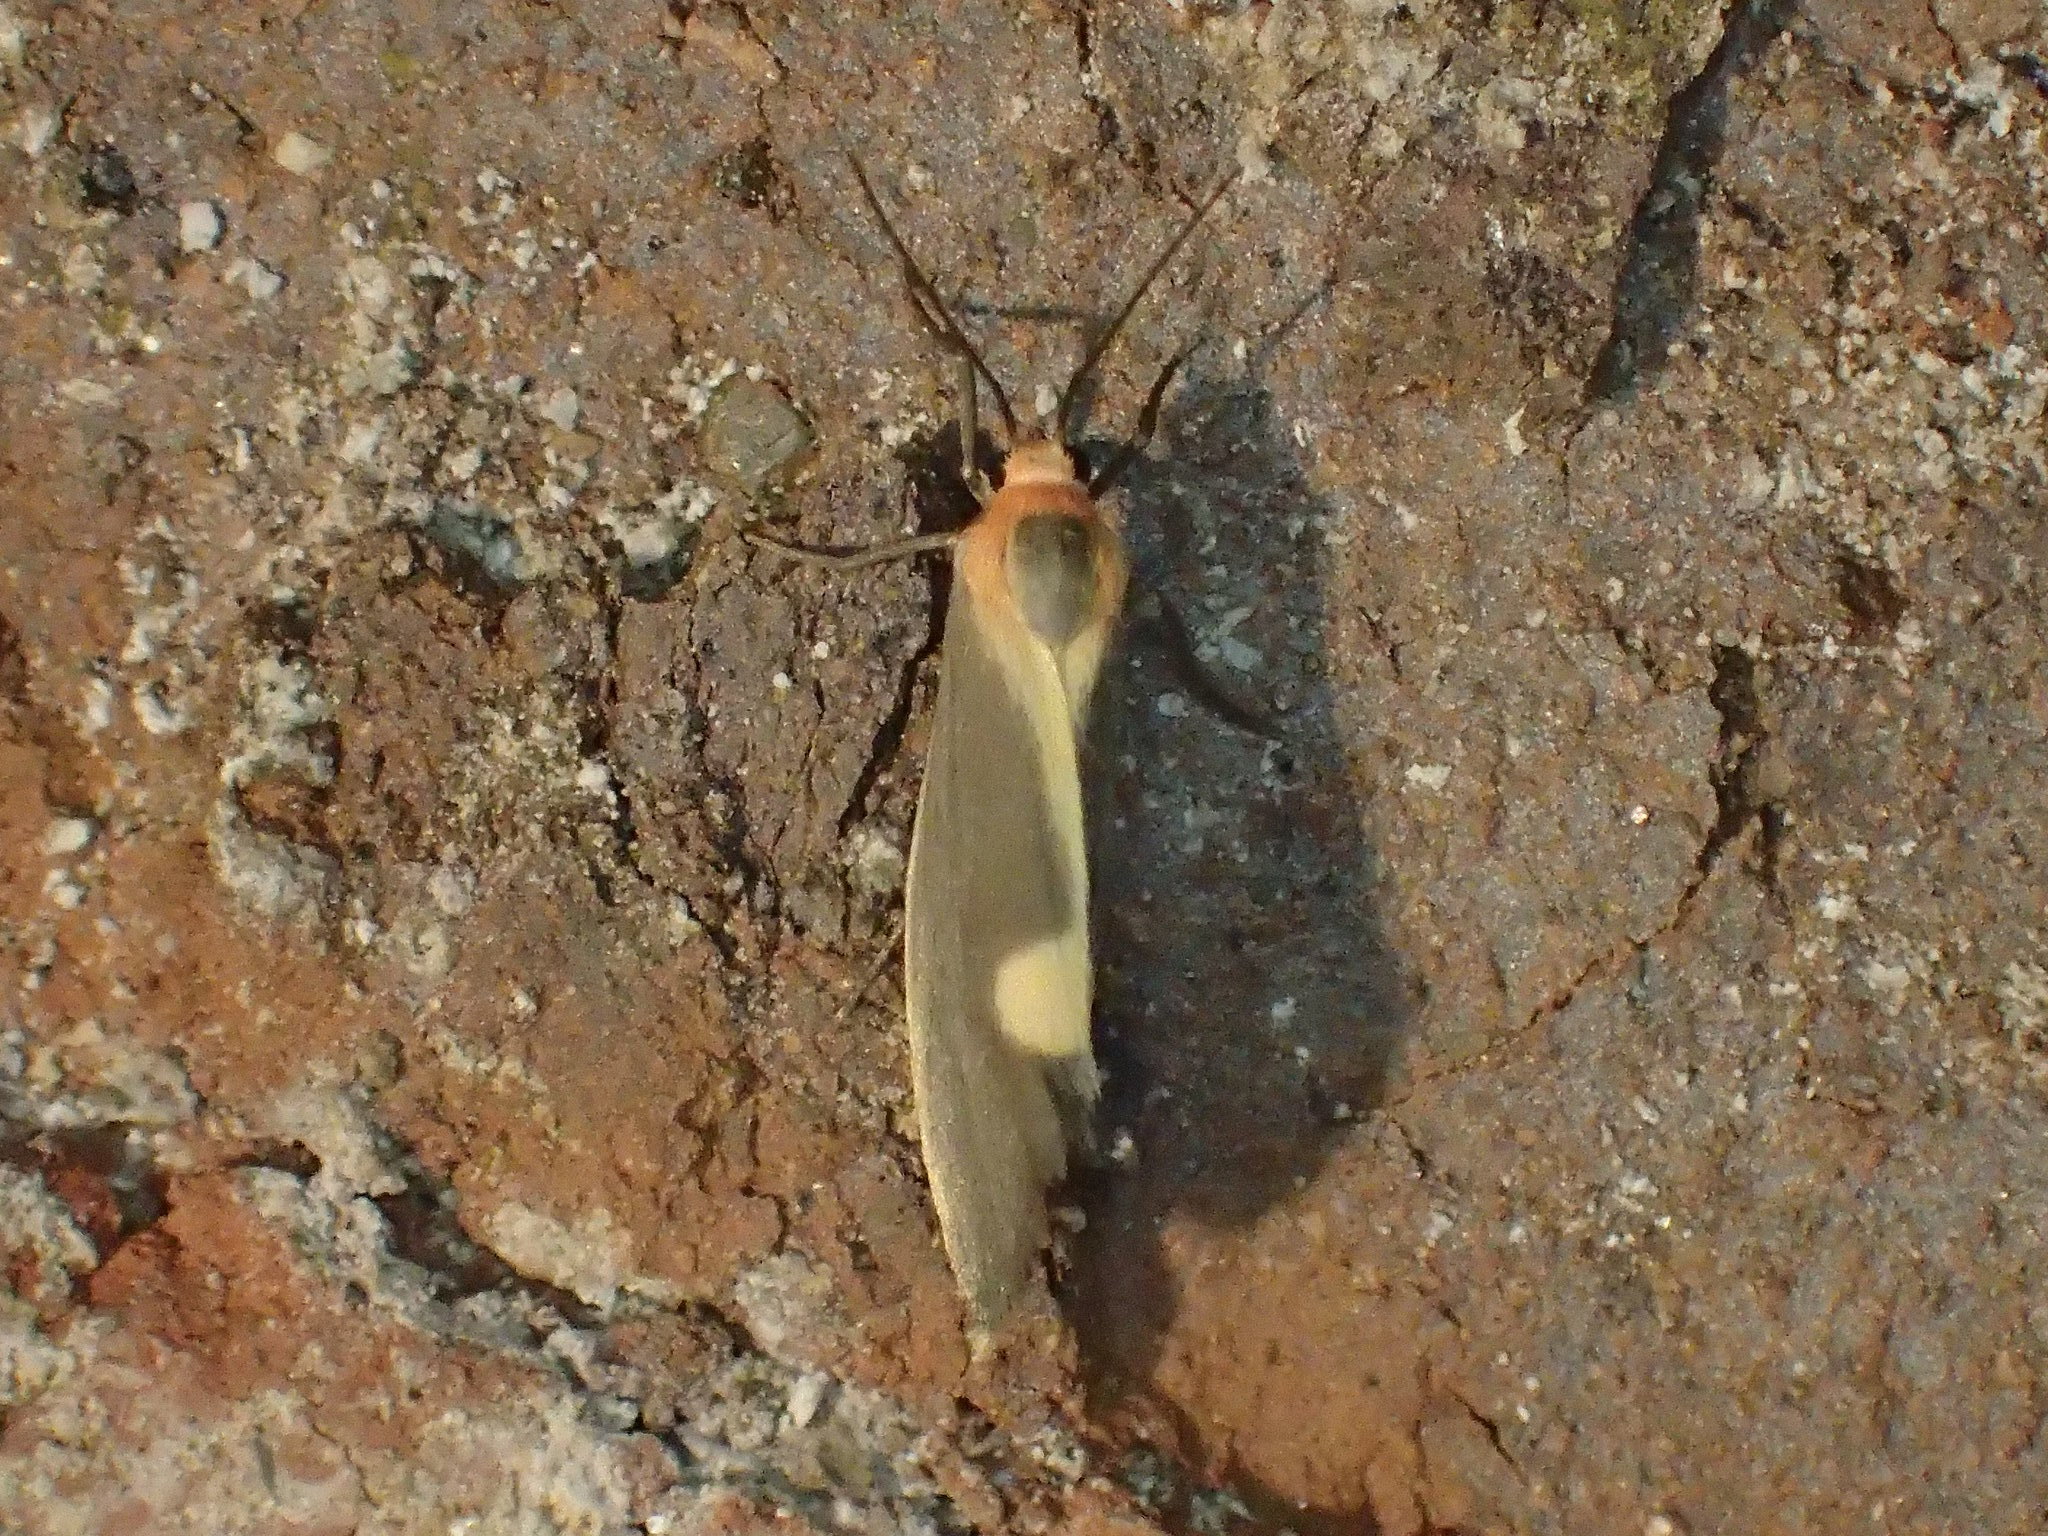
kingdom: Animalia
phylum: Arthropoda
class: Insecta
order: Lepidoptera
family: Erebidae
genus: Cisthene
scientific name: Cisthene plumbea
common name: Lead colored lichen moth
